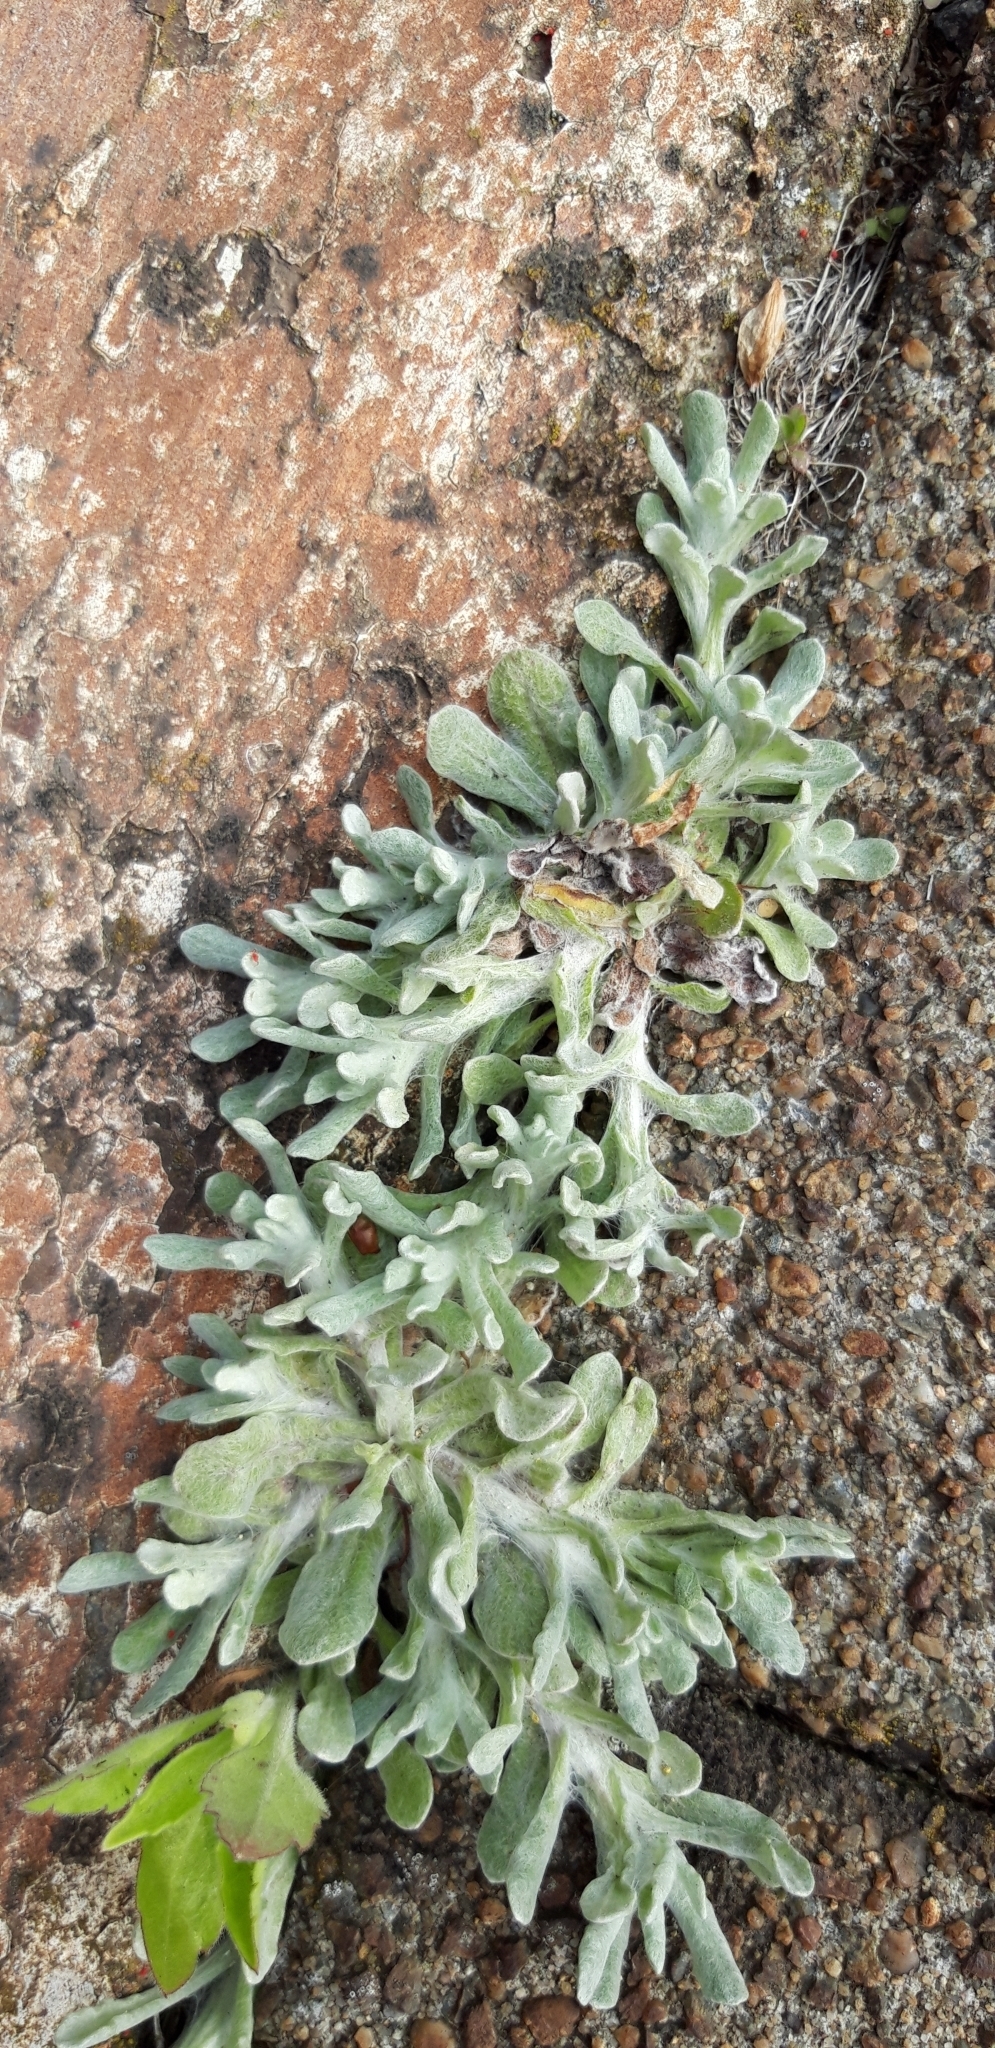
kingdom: Plantae
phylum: Tracheophyta
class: Magnoliopsida
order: Asterales
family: Asteraceae
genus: Helichrysum
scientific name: Helichrysum luteoalbum
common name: Daisy
